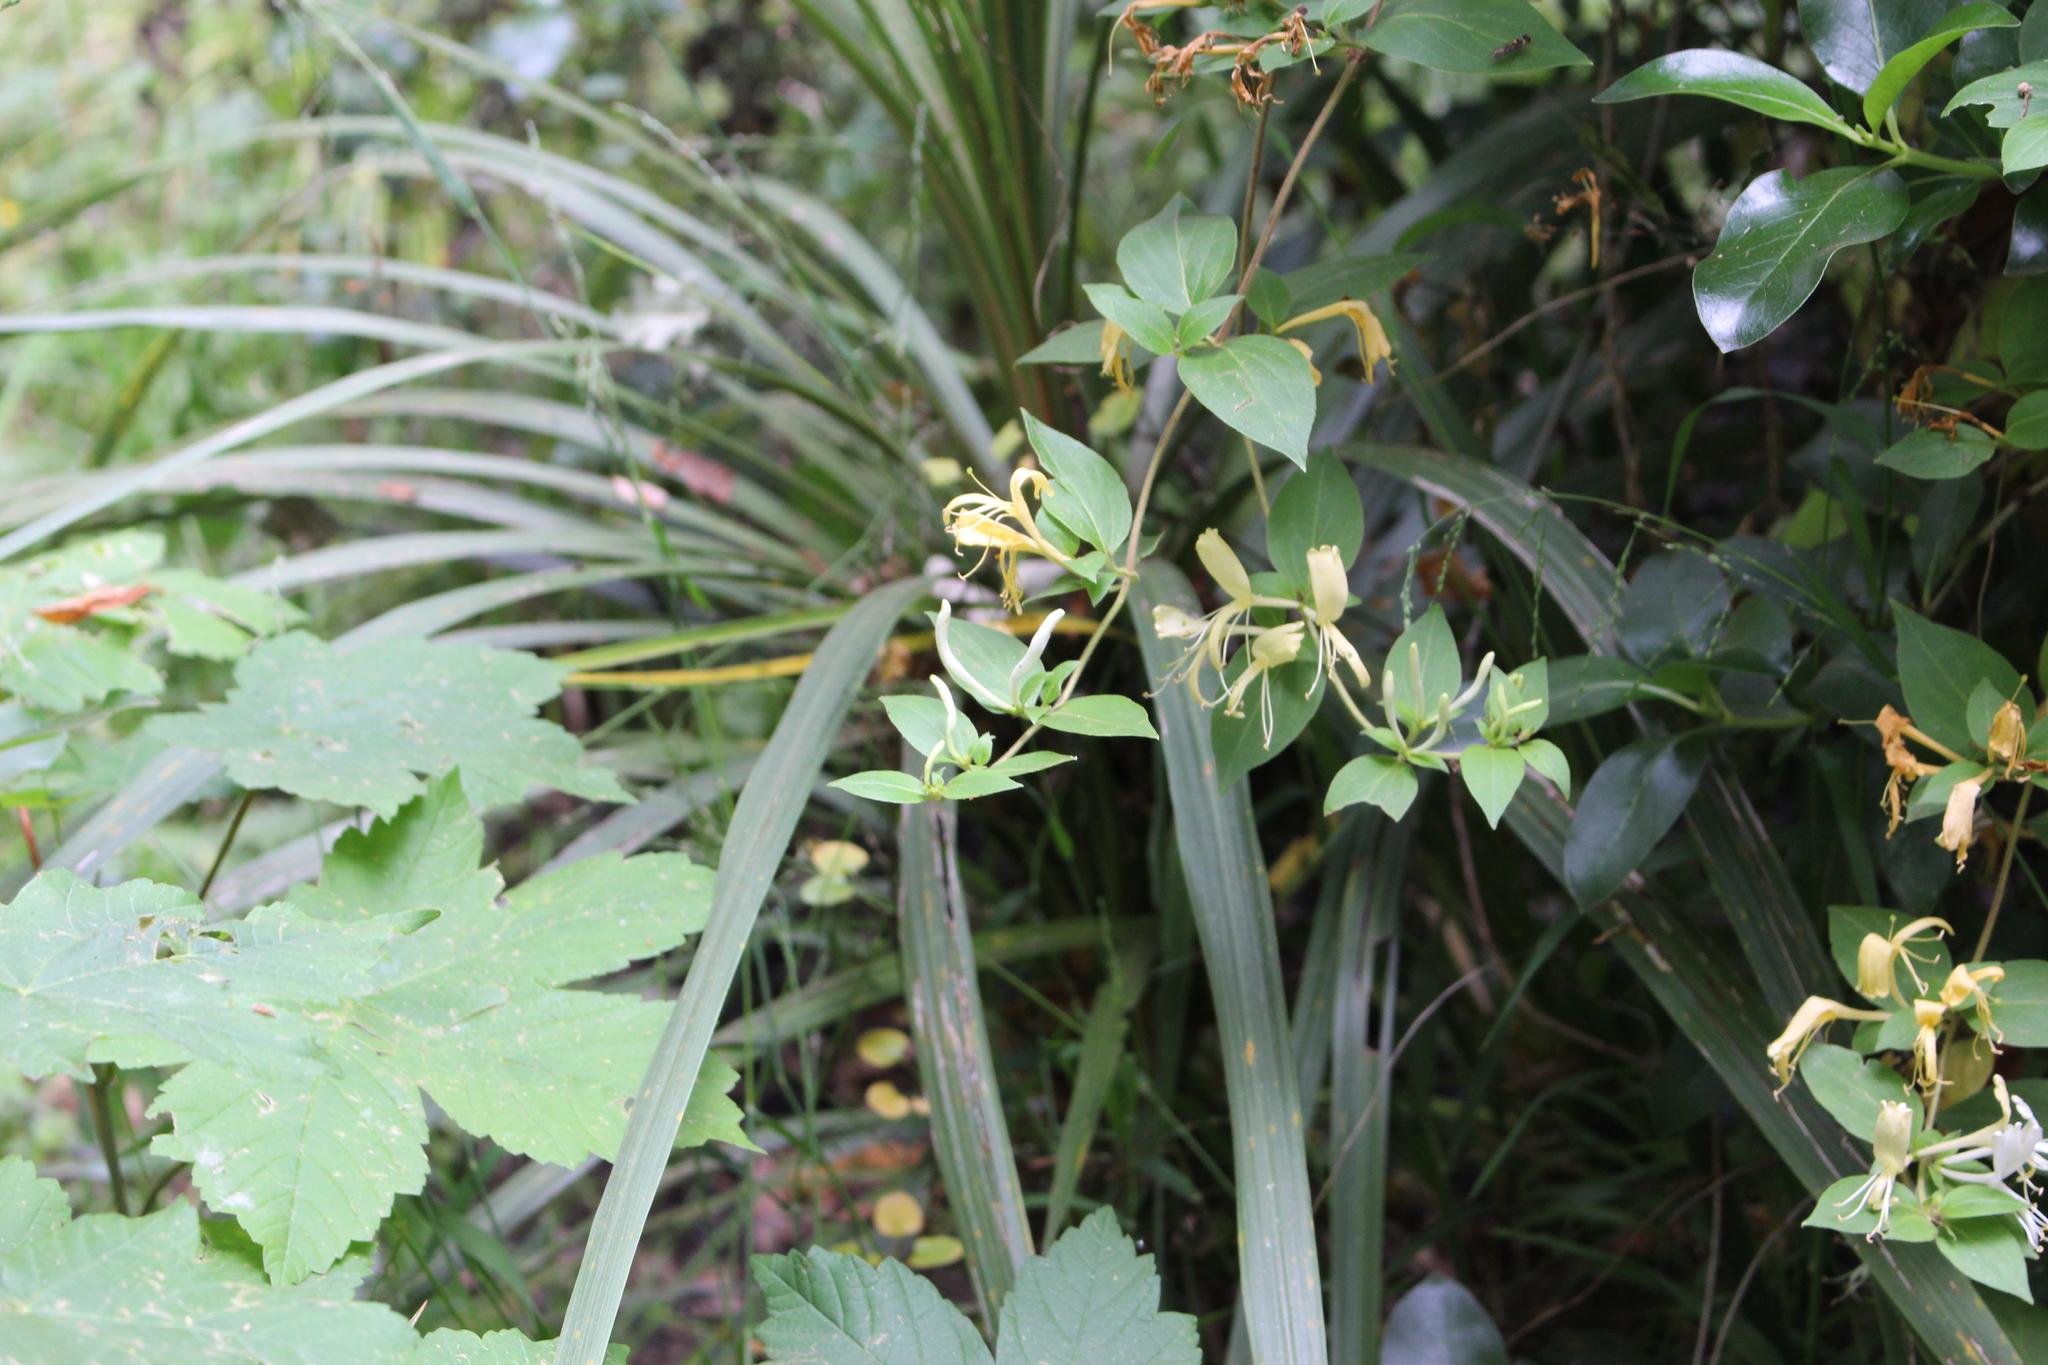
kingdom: Plantae
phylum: Tracheophyta
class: Magnoliopsida
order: Dipsacales
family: Caprifoliaceae
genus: Lonicera
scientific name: Lonicera japonica
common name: Japanese honeysuckle
